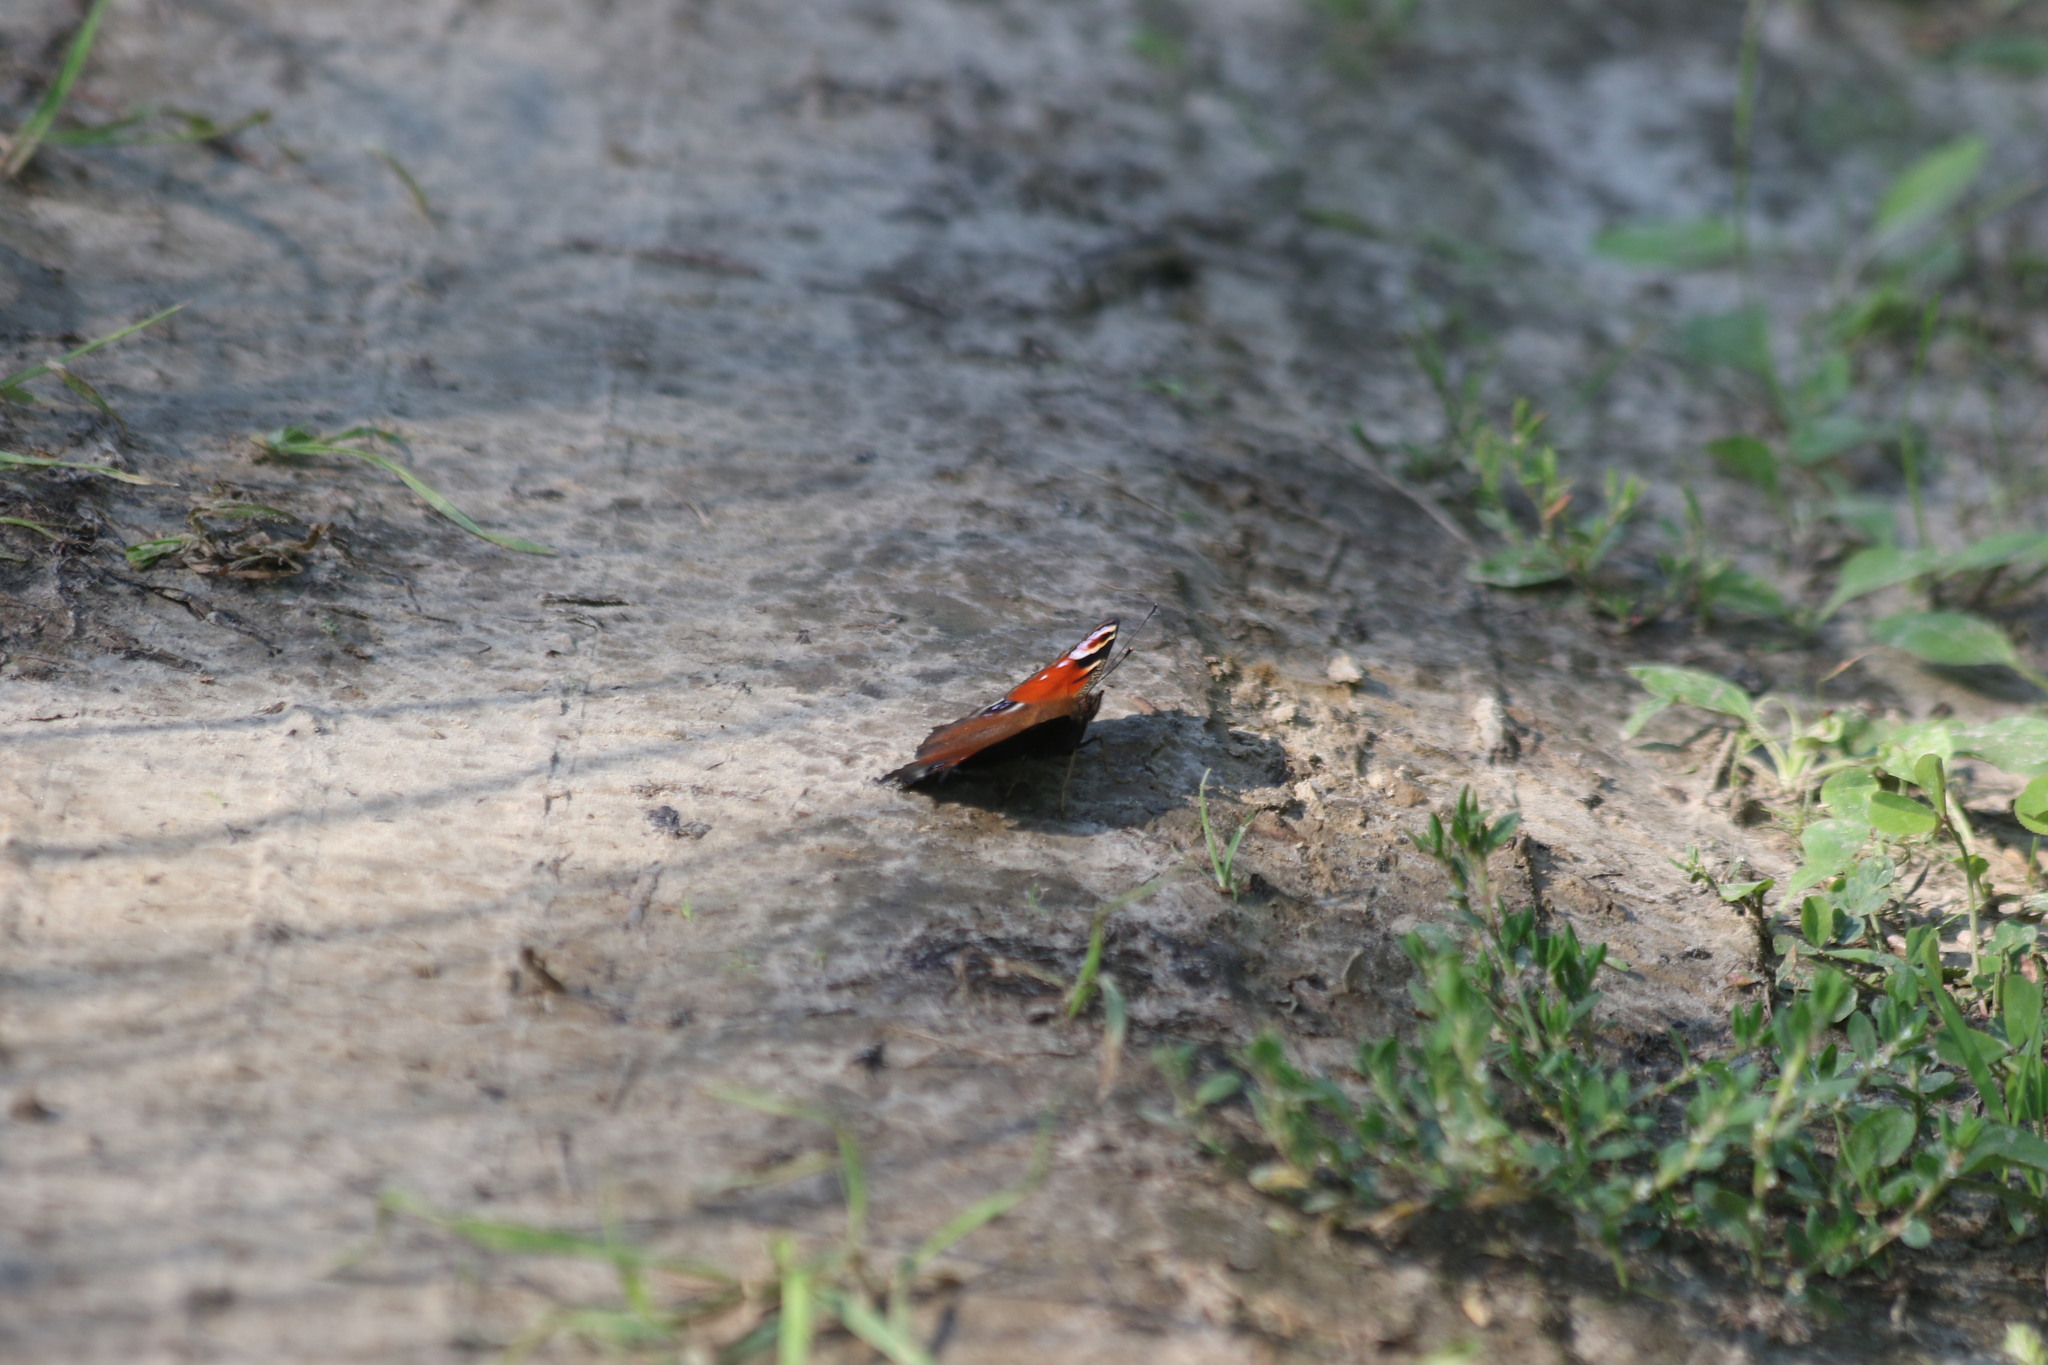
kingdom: Animalia
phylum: Arthropoda
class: Insecta
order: Lepidoptera
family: Nymphalidae
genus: Aglais
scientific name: Aglais io
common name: Peacock
